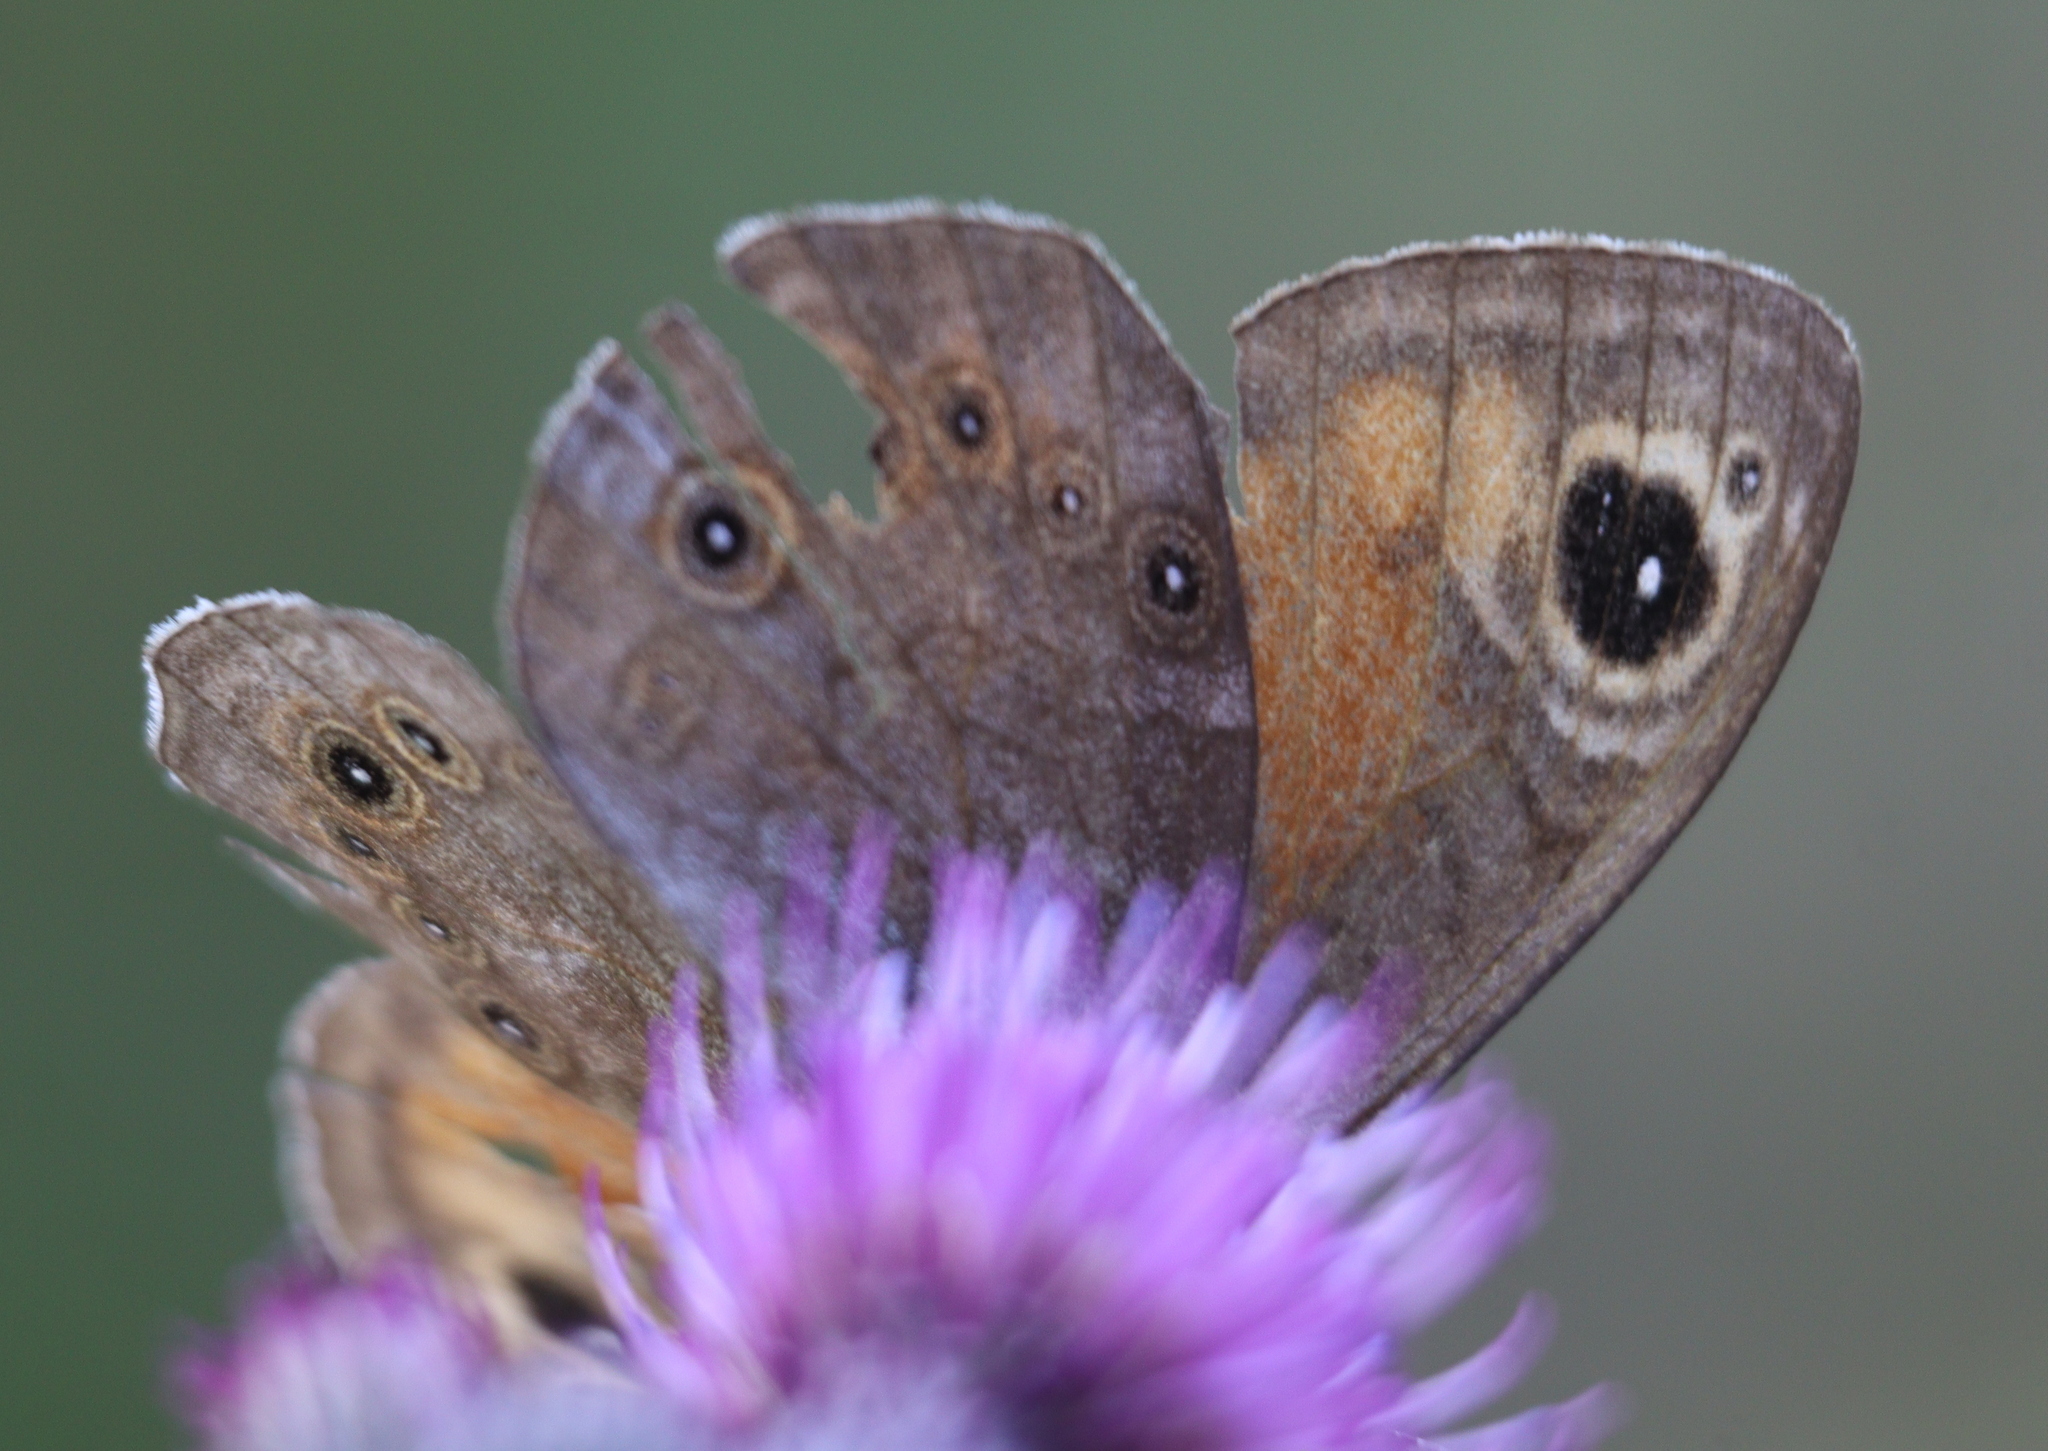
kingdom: Animalia
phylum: Arthropoda
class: Insecta
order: Lepidoptera
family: Nymphalidae
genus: Pararge
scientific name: Pararge Lasiommata maera
